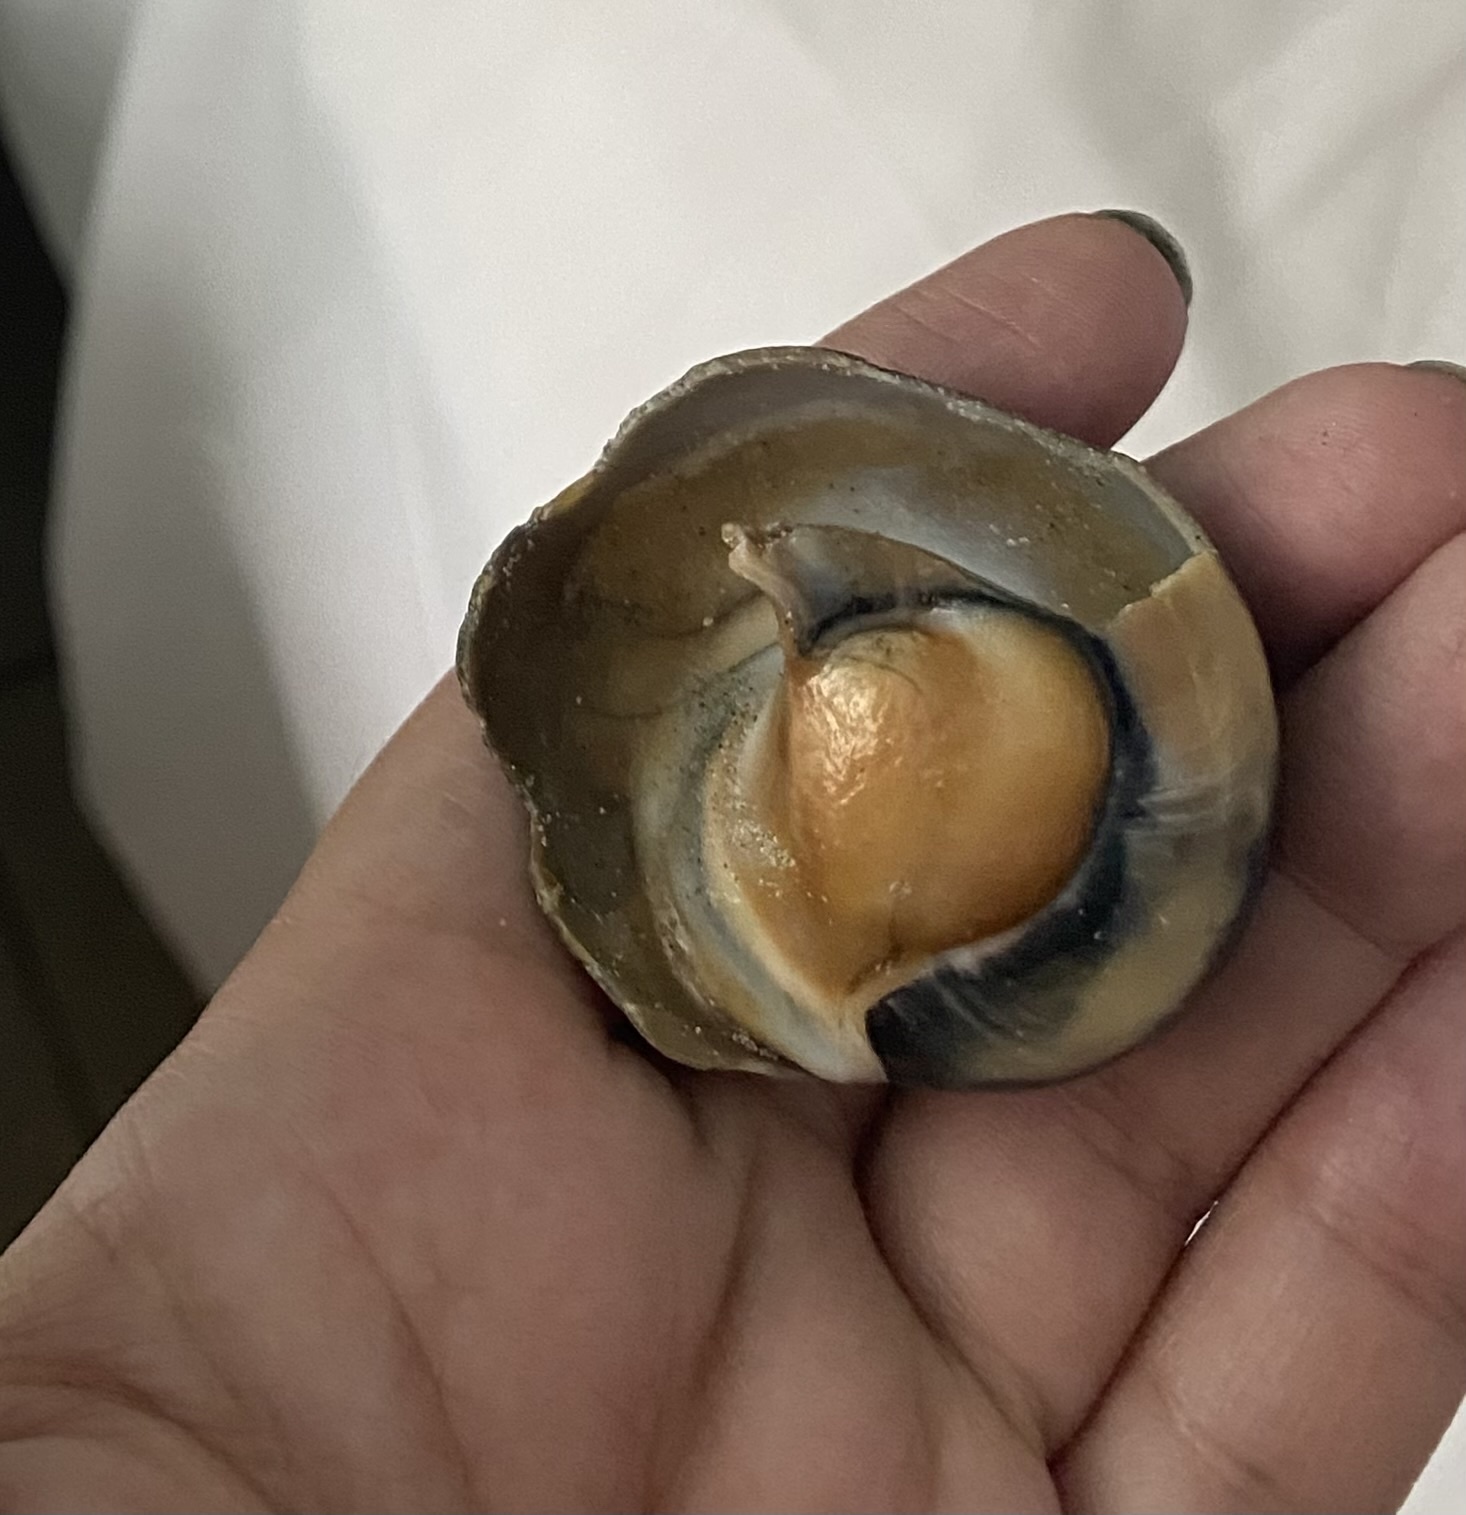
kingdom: Animalia
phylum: Mollusca
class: Gastropoda
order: Littorinimorpha
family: Naticidae
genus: Neverita
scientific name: Neverita duplicata
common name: Lobed moonsnail
